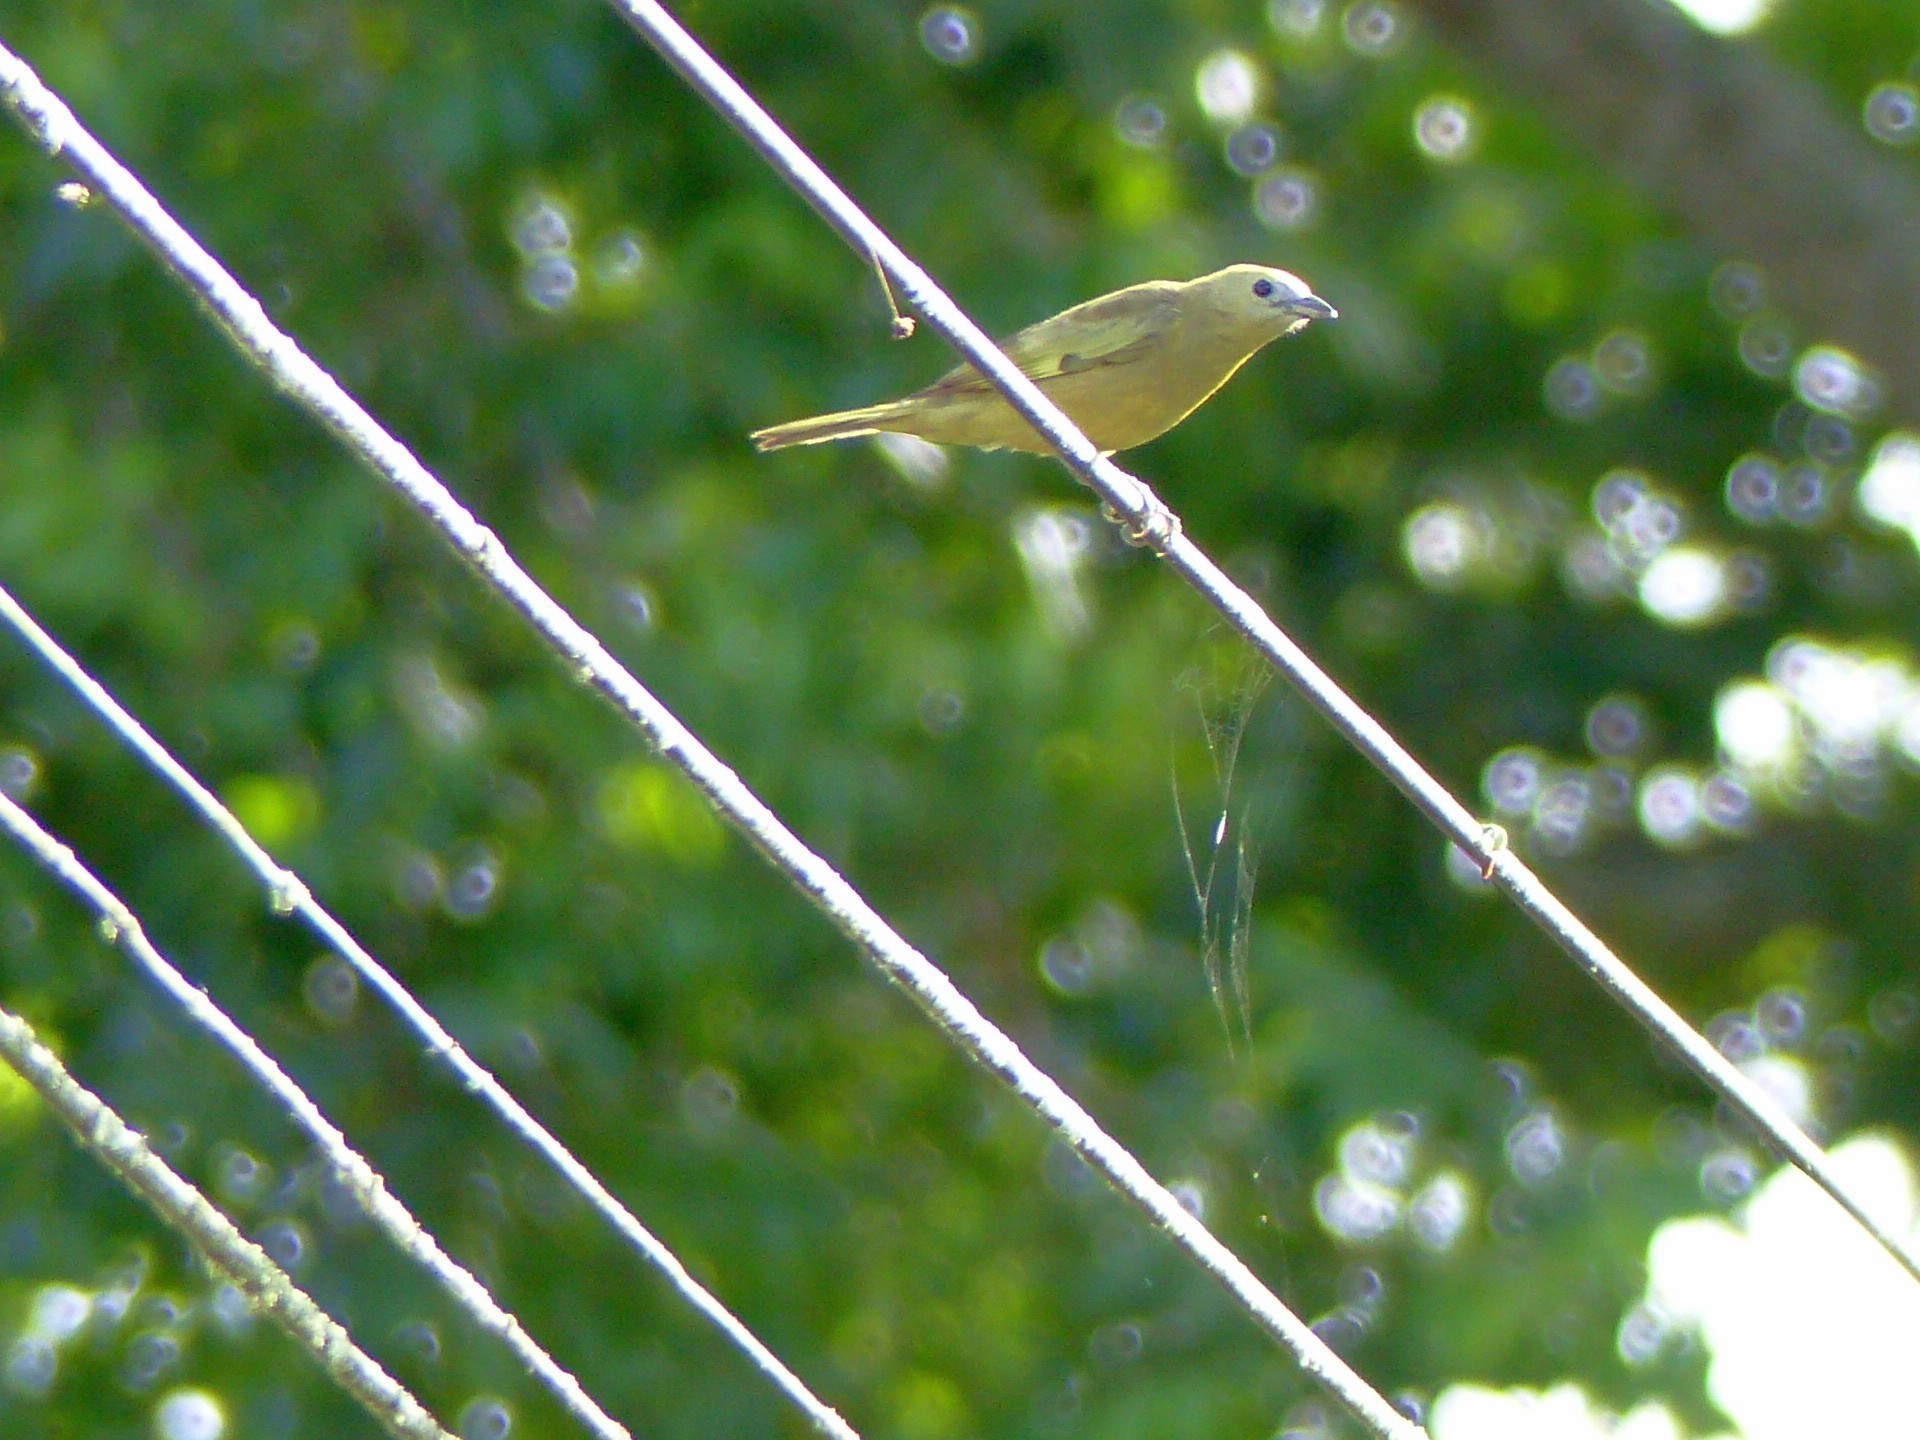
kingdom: Animalia
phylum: Chordata
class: Aves
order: Passeriformes
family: Thraupidae
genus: Thraupis
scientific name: Thraupis palmarum
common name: Palm tanager
